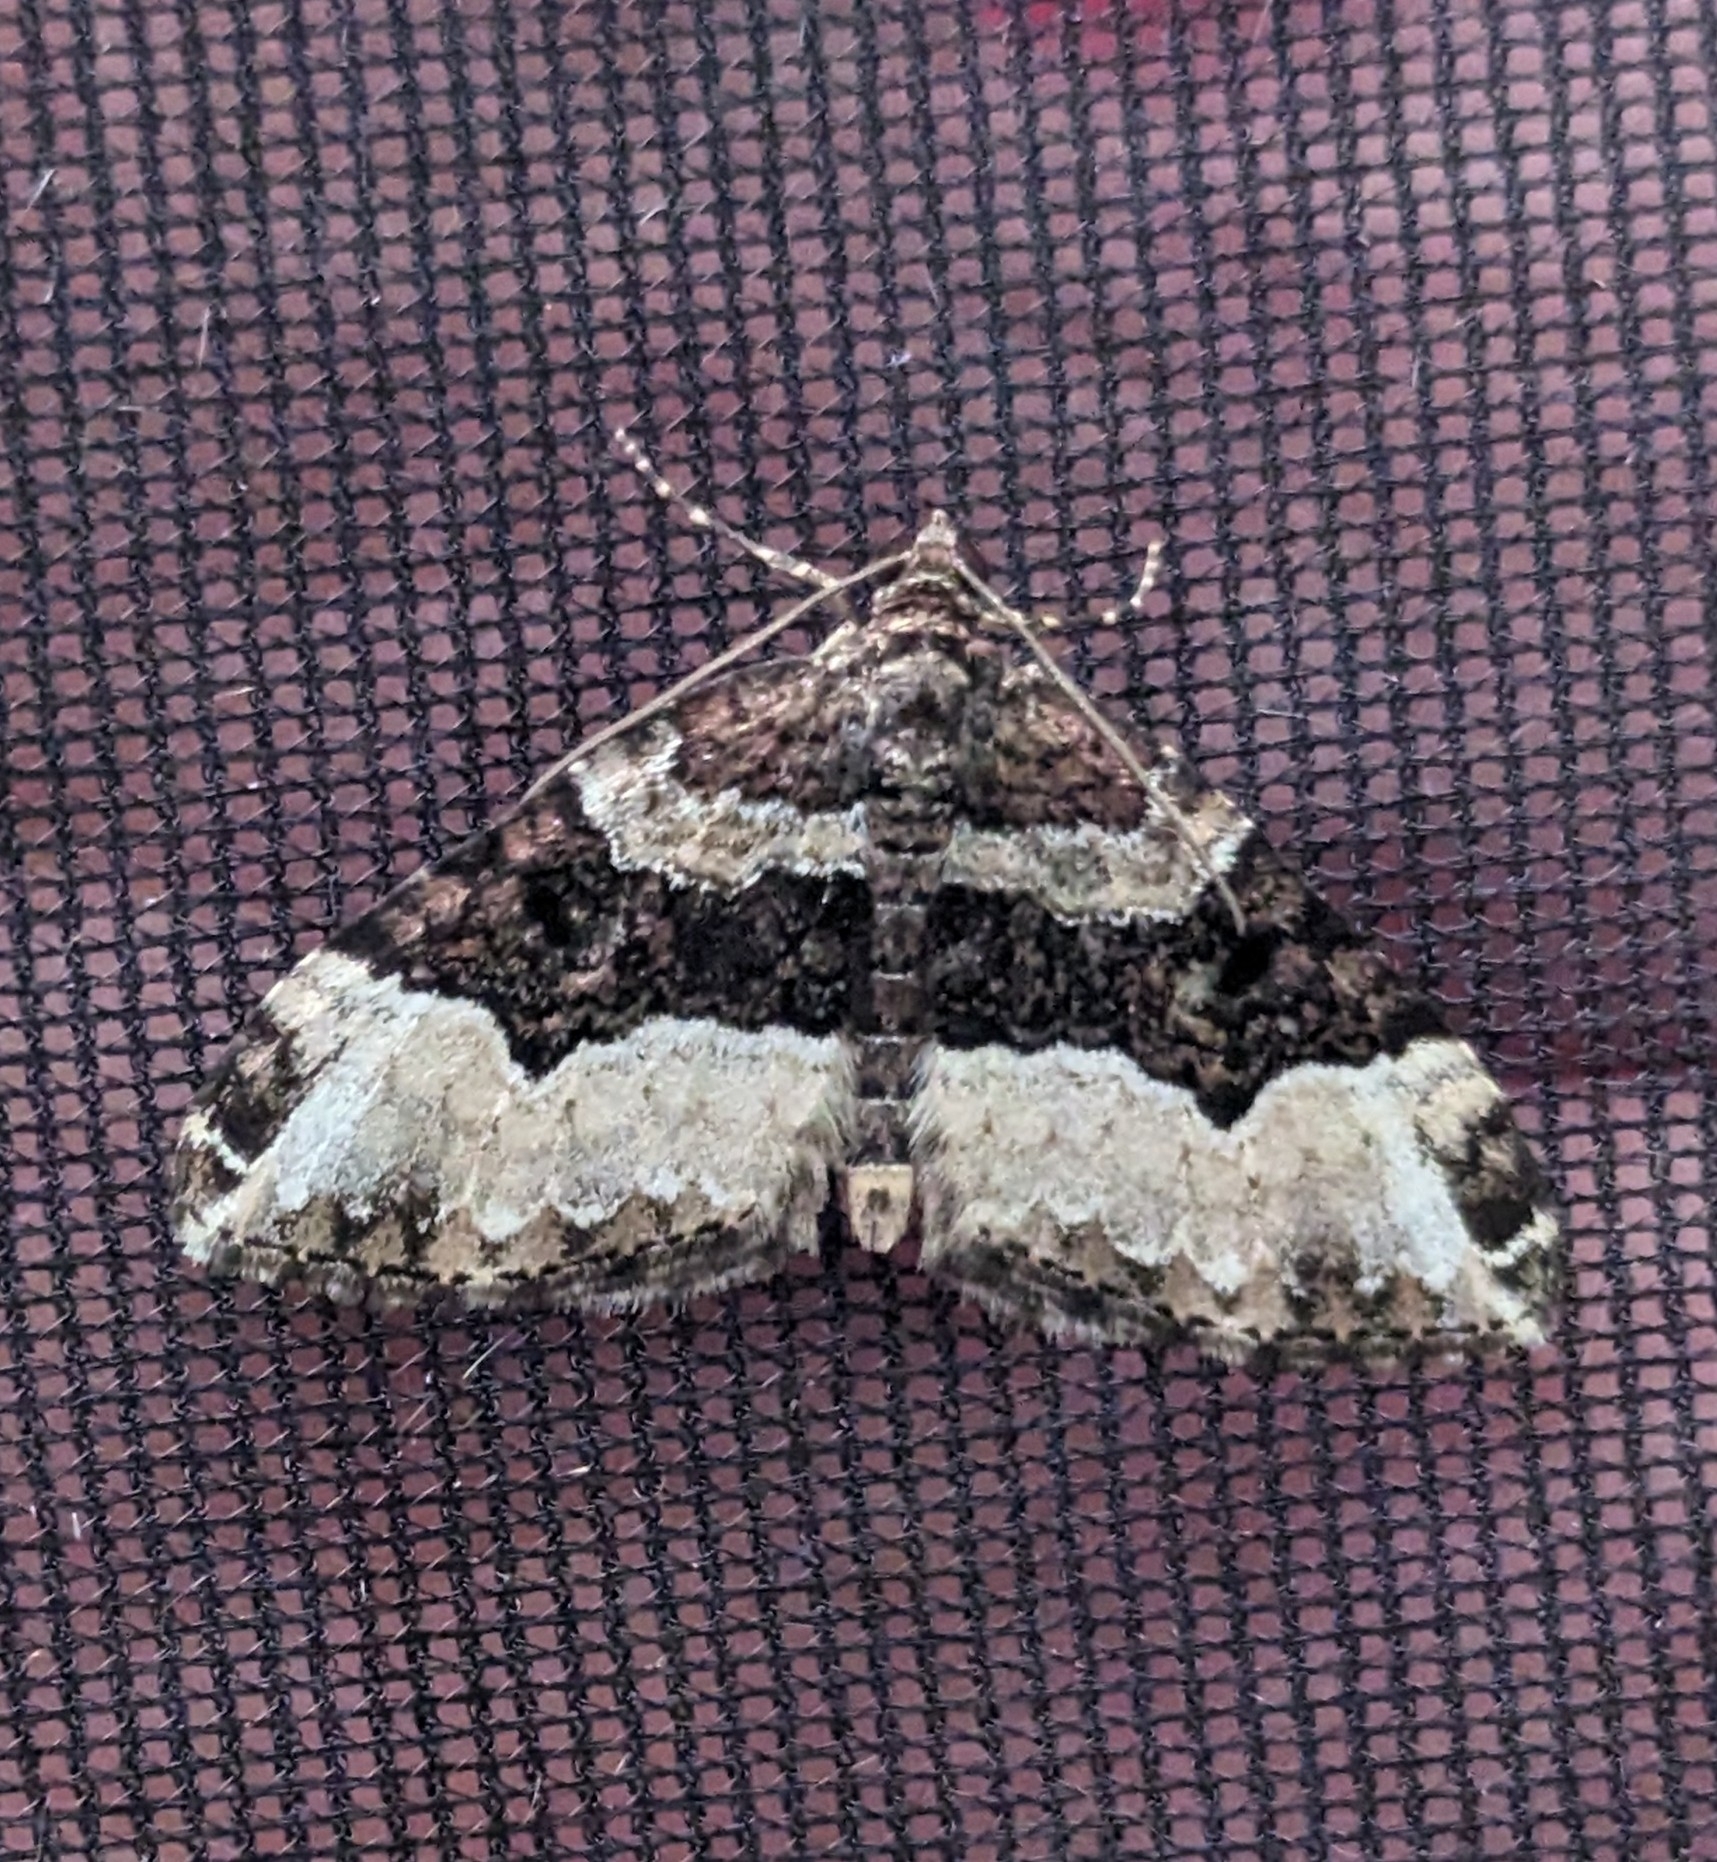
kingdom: Animalia
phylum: Arthropoda
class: Insecta
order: Lepidoptera
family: Geometridae
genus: Euphyia
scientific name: Euphyia intermediata
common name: Sharp-angled carpet
